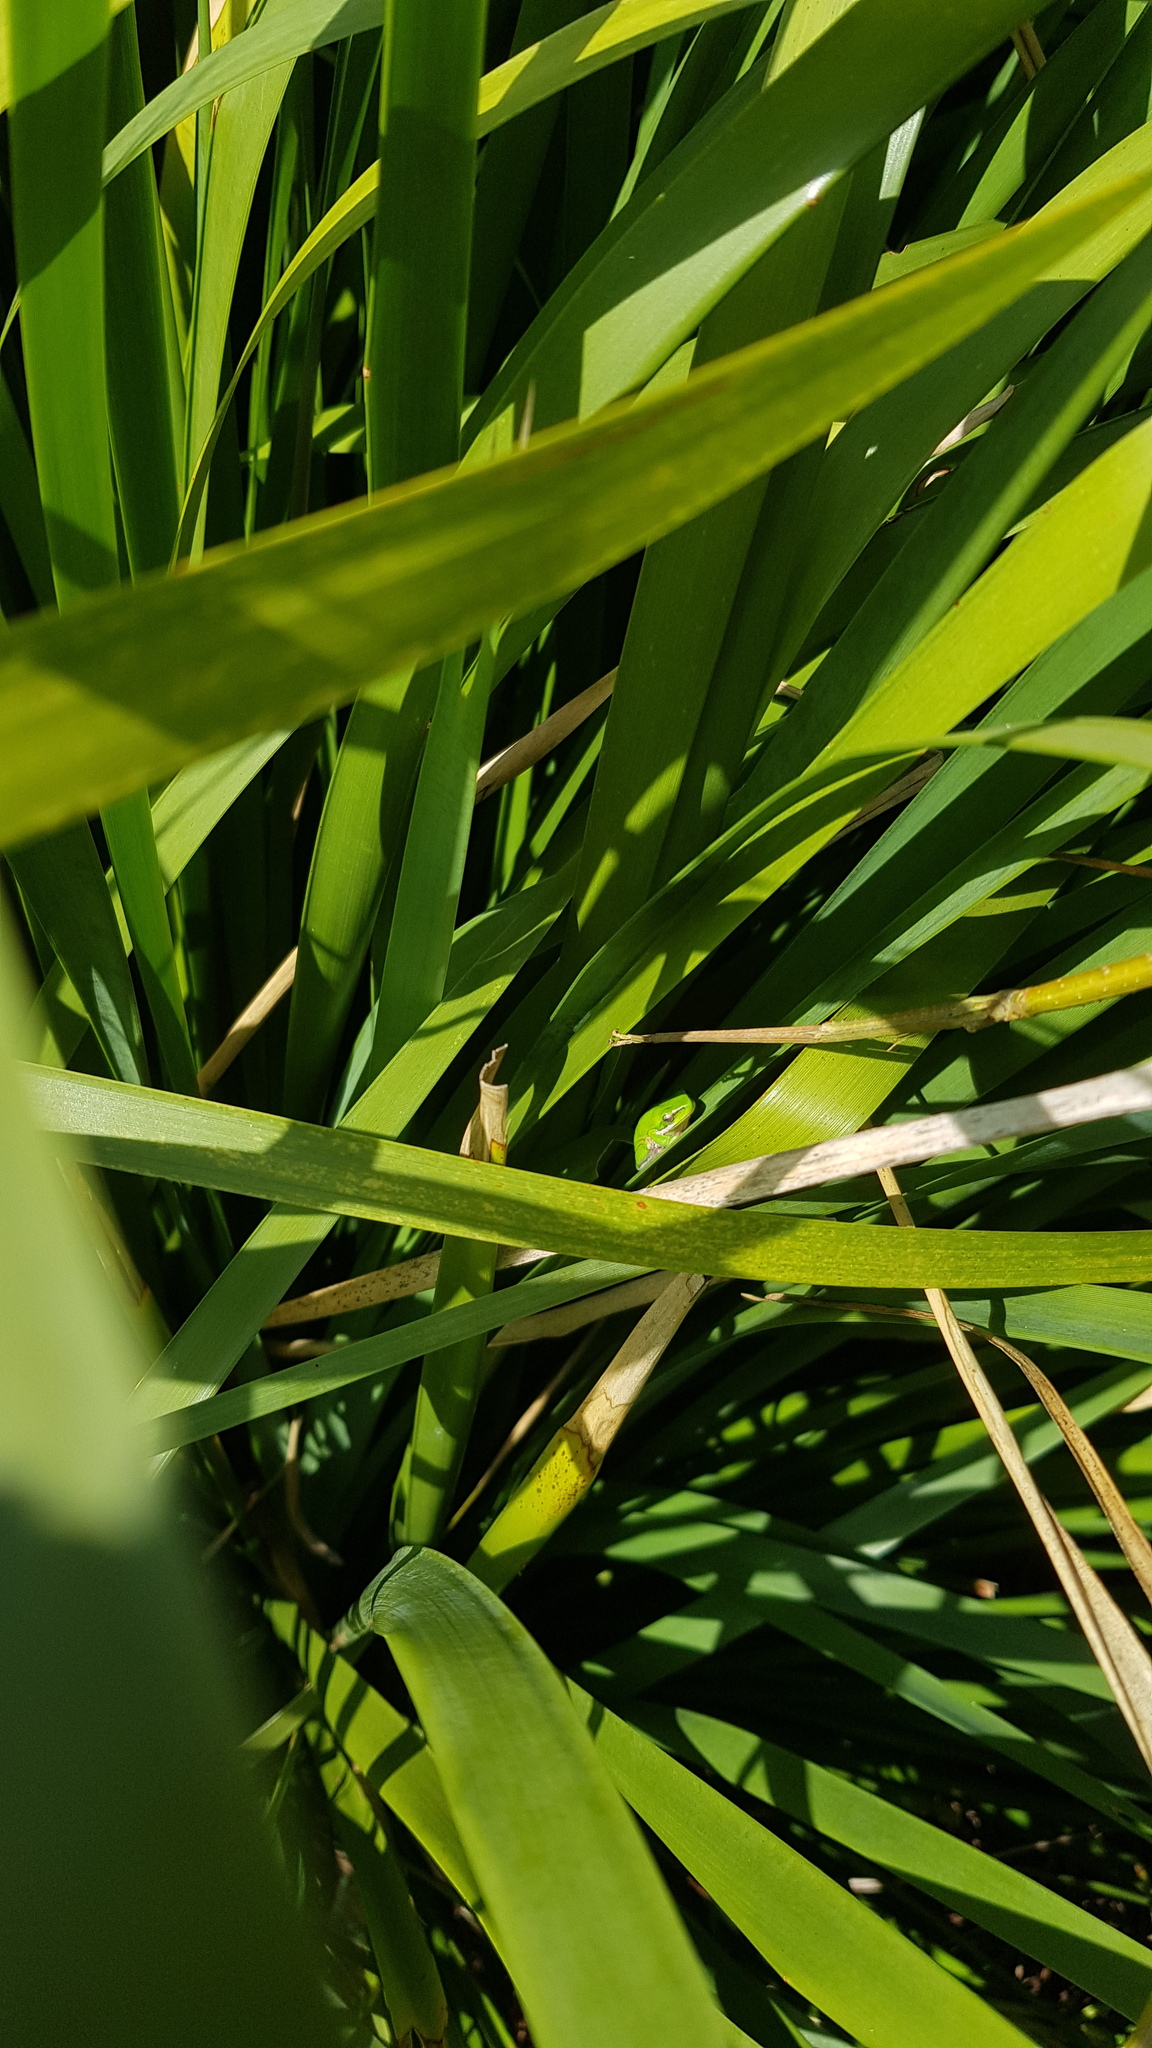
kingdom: Animalia
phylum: Chordata
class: Amphibia
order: Anura
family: Pelodryadidae
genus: Litoria
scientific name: Litoria fallax
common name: Eastern dwarf treefrog
